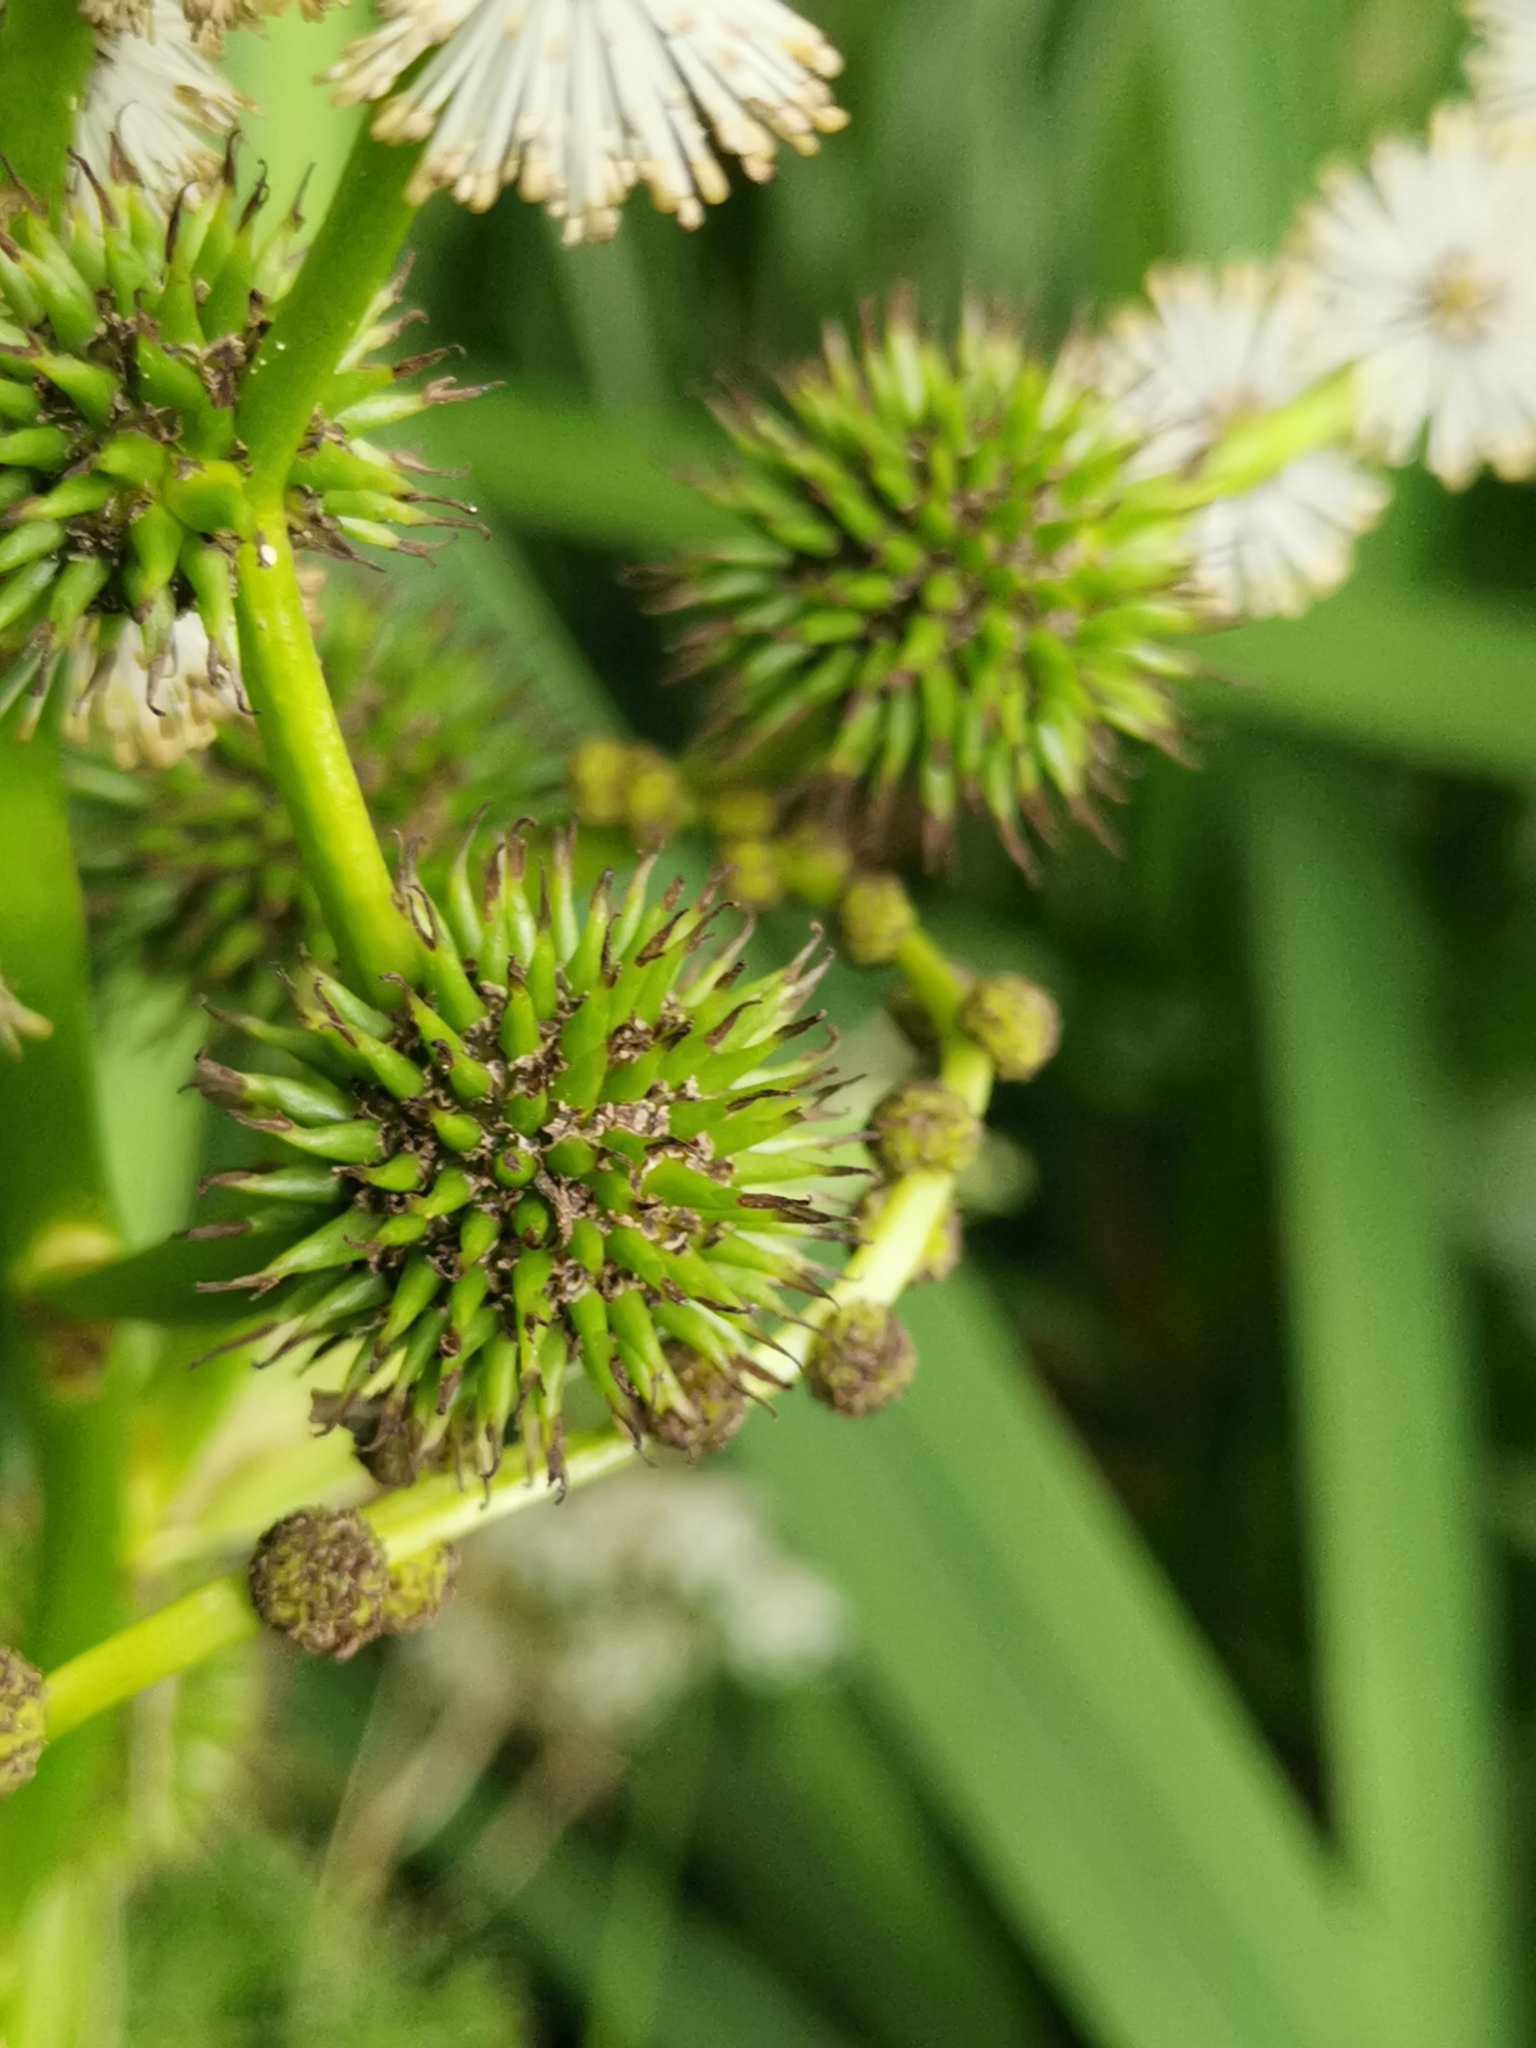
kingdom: Plantae
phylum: Tracheophyta
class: Liliopsida
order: Poales
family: Typhaceae
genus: Sparganium
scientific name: Sparganium erectum
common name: Branched bur-reed
